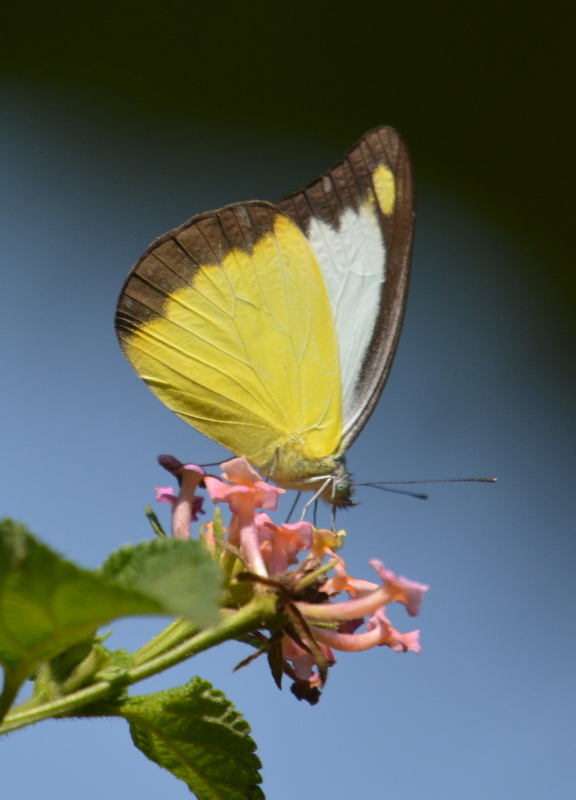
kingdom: Animalia
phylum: Arthropoda
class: Insecta
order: Lepidoptera
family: Pieridae
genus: Appias
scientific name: Appias lyncida
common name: Chocolate albatross
